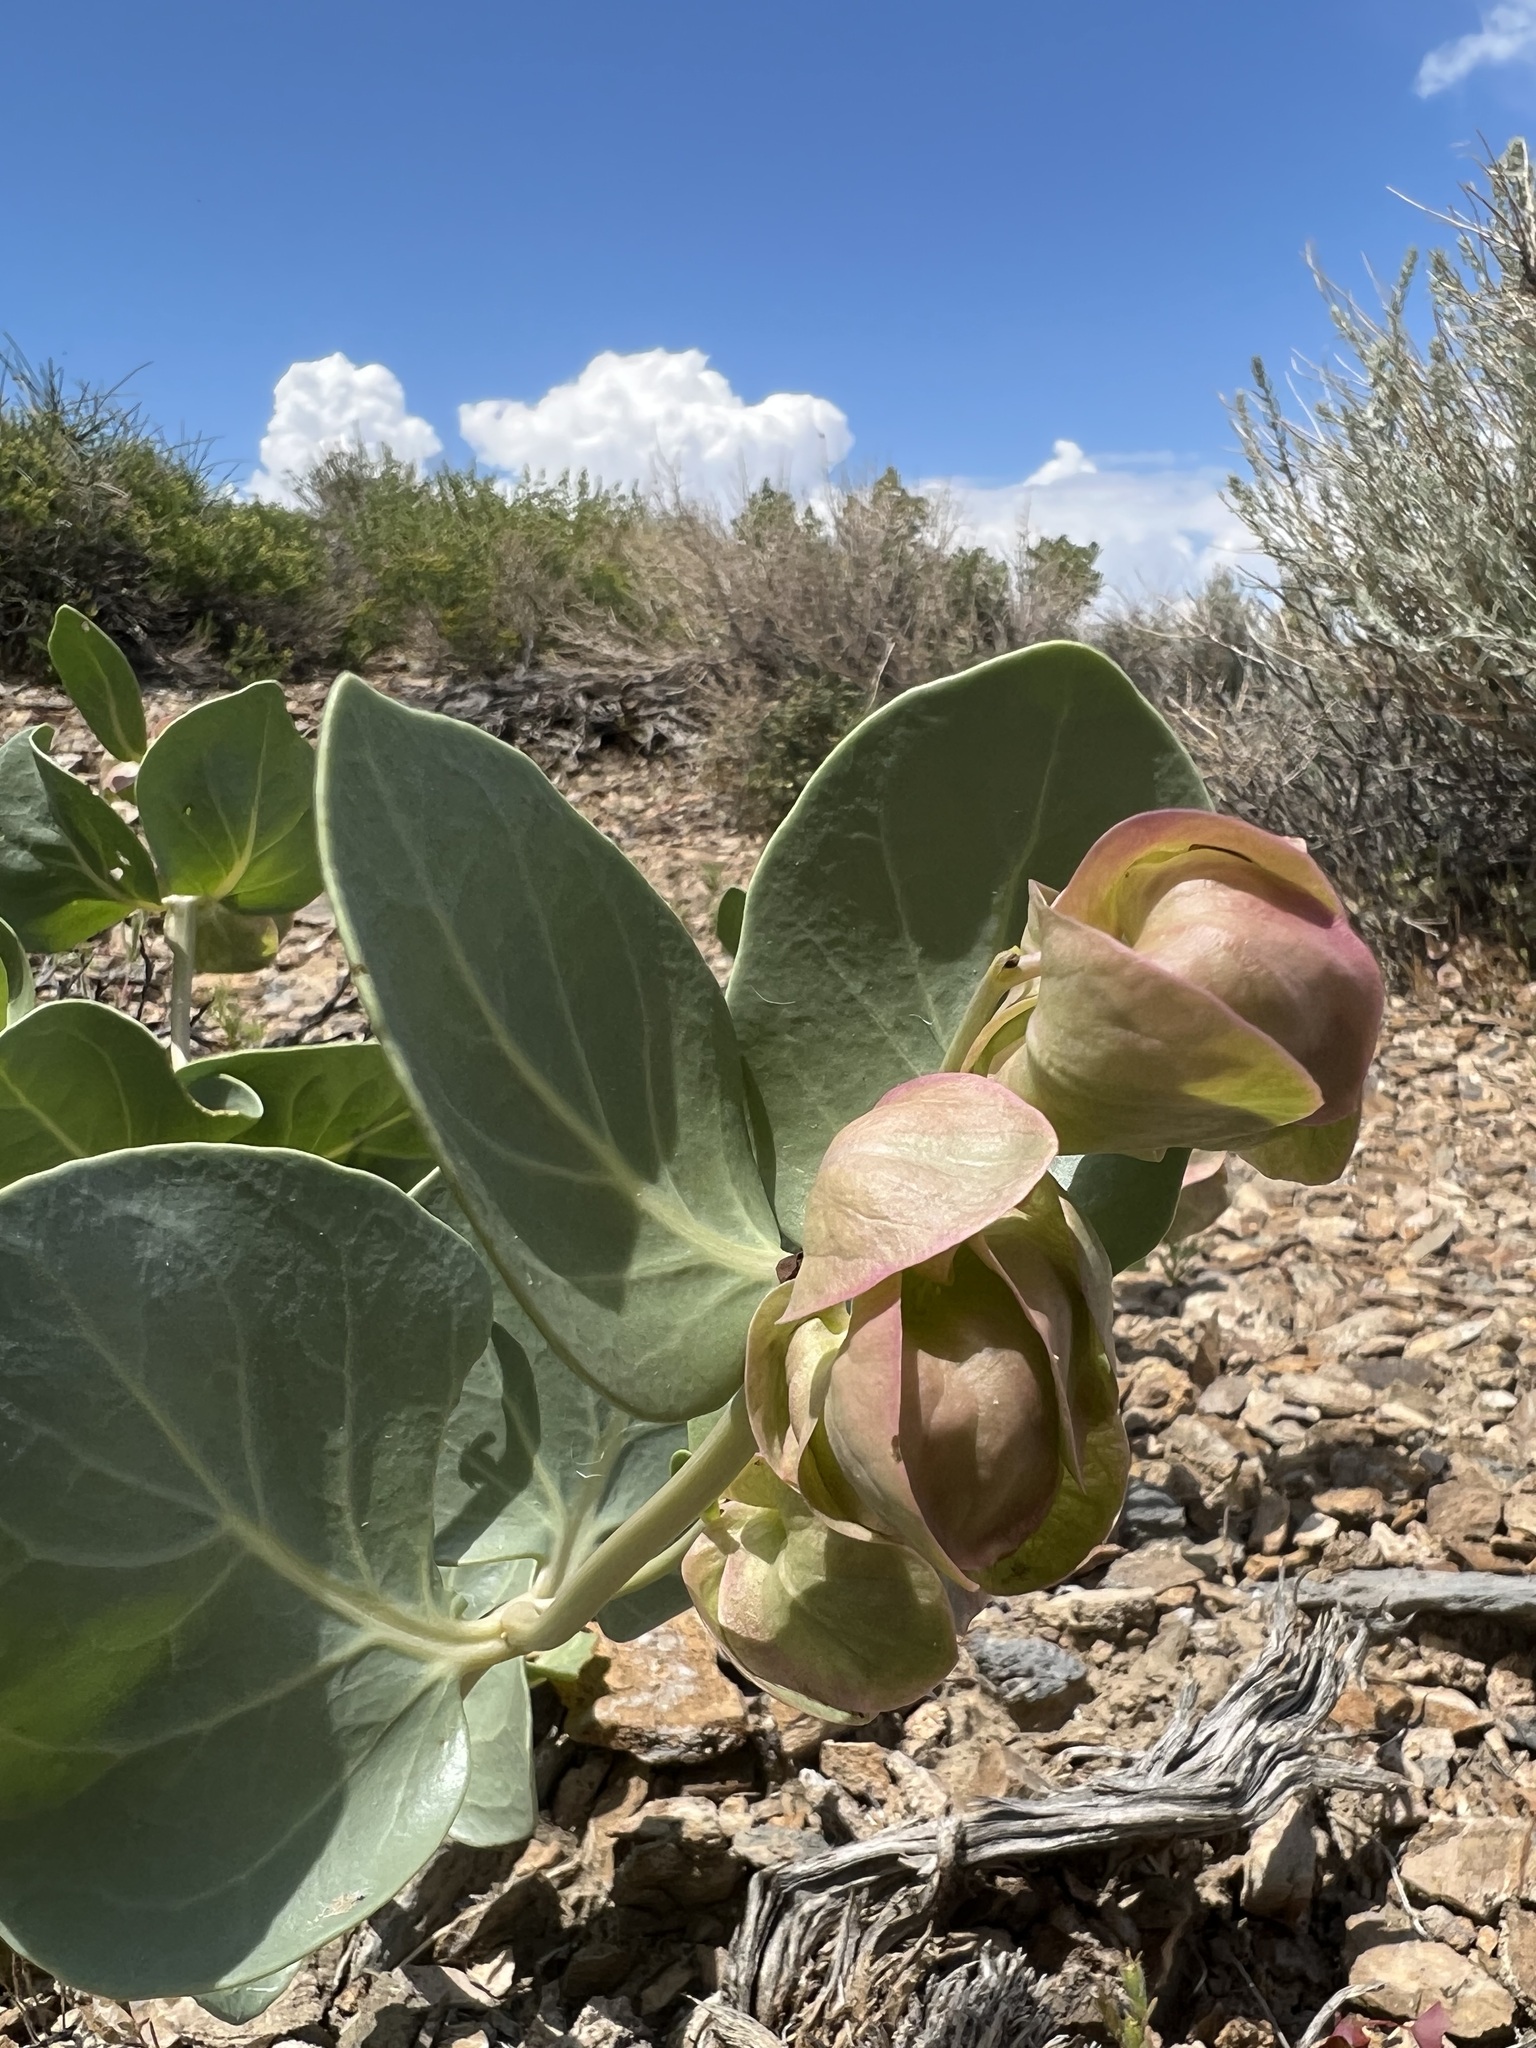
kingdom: Plantae
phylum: Tracheophyta
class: Magnoliopsida
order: Caryophyllales
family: Nyctaginaceae
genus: Mirabilis
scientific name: Mirabilis alipes
